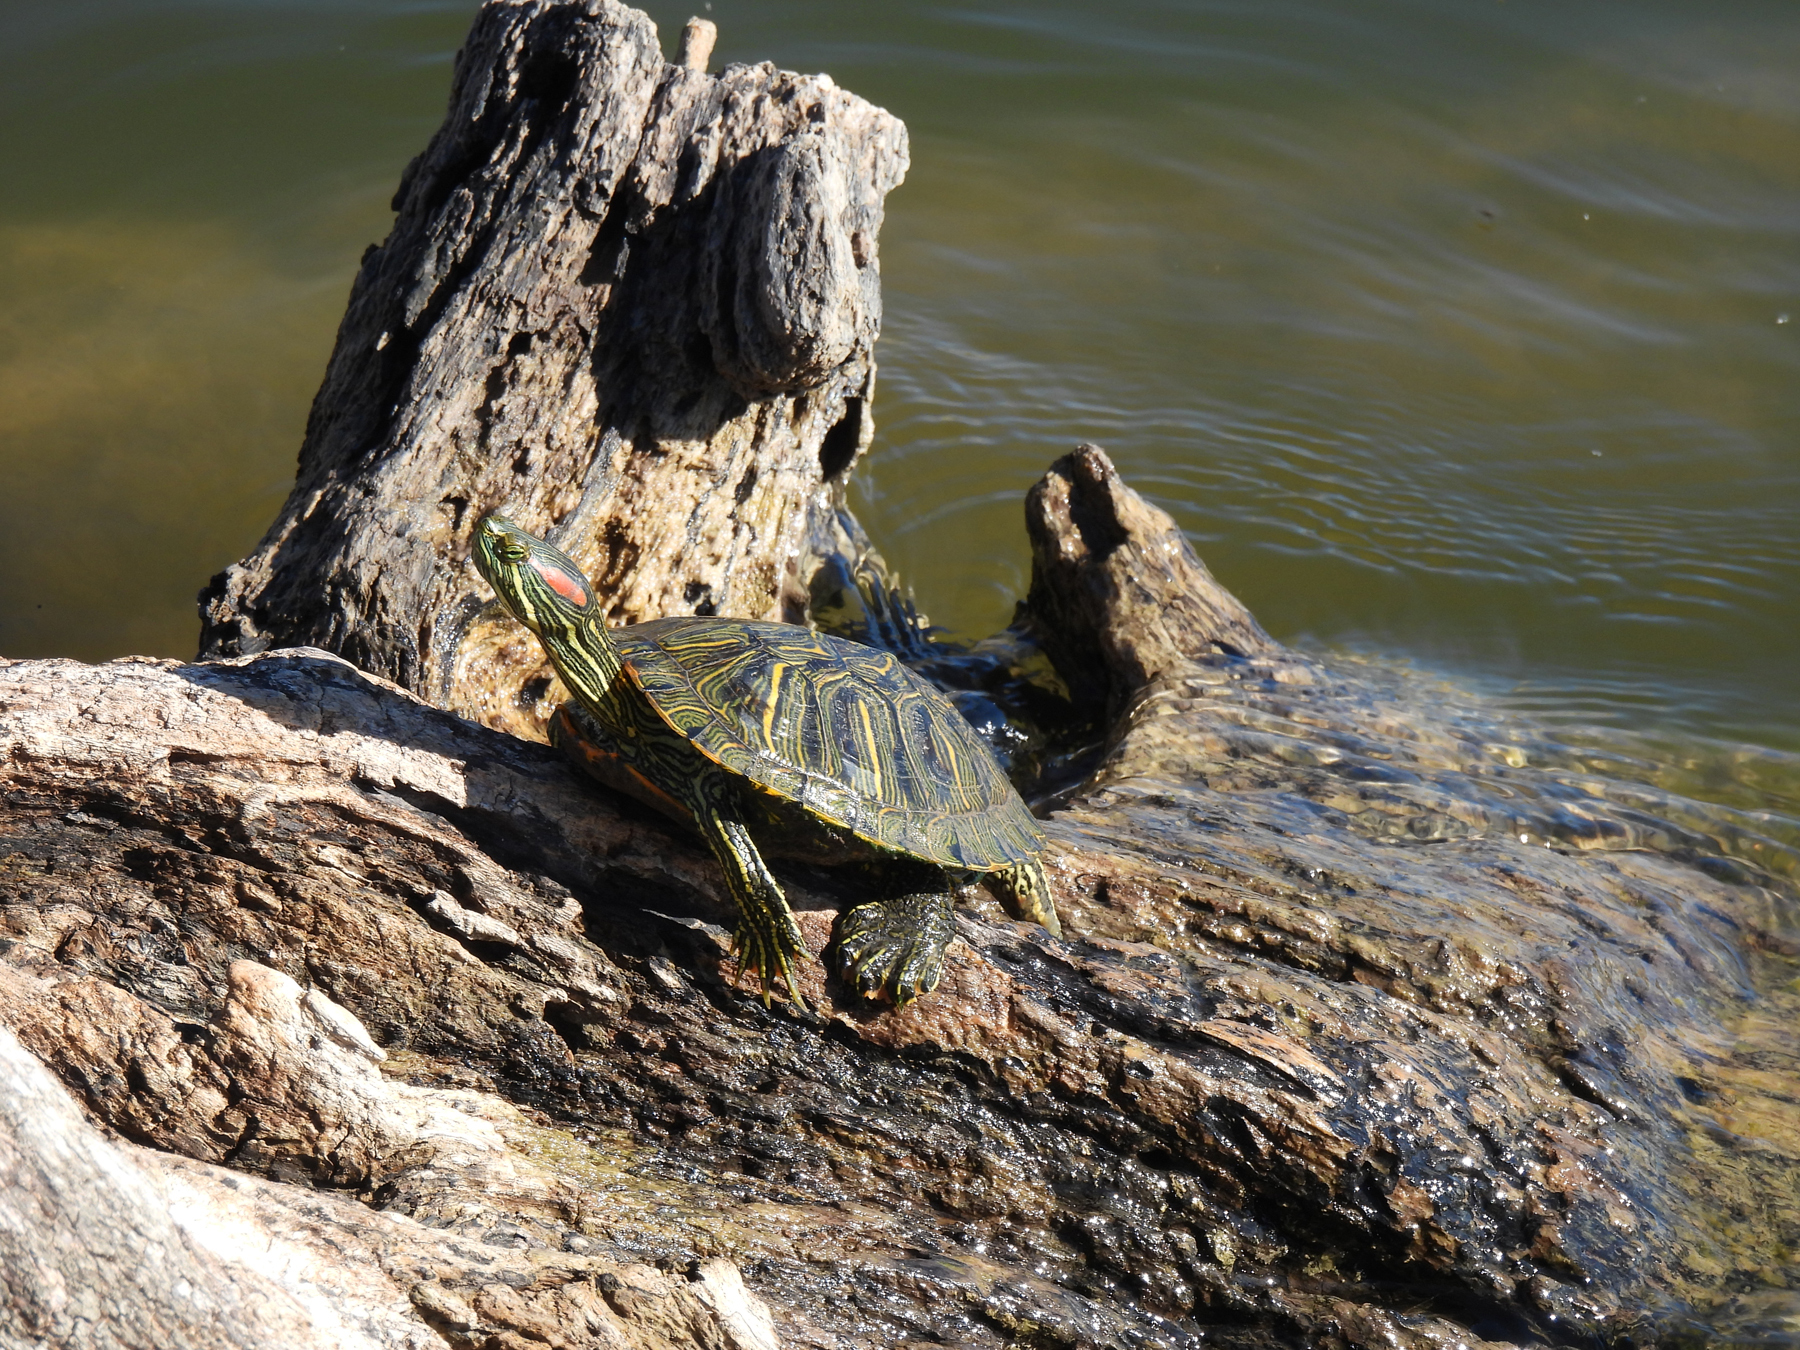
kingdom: Animalia
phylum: Chordata
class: Testudines
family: Emydidae
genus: Trachemys
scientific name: Trachemys scripta
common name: Slider
